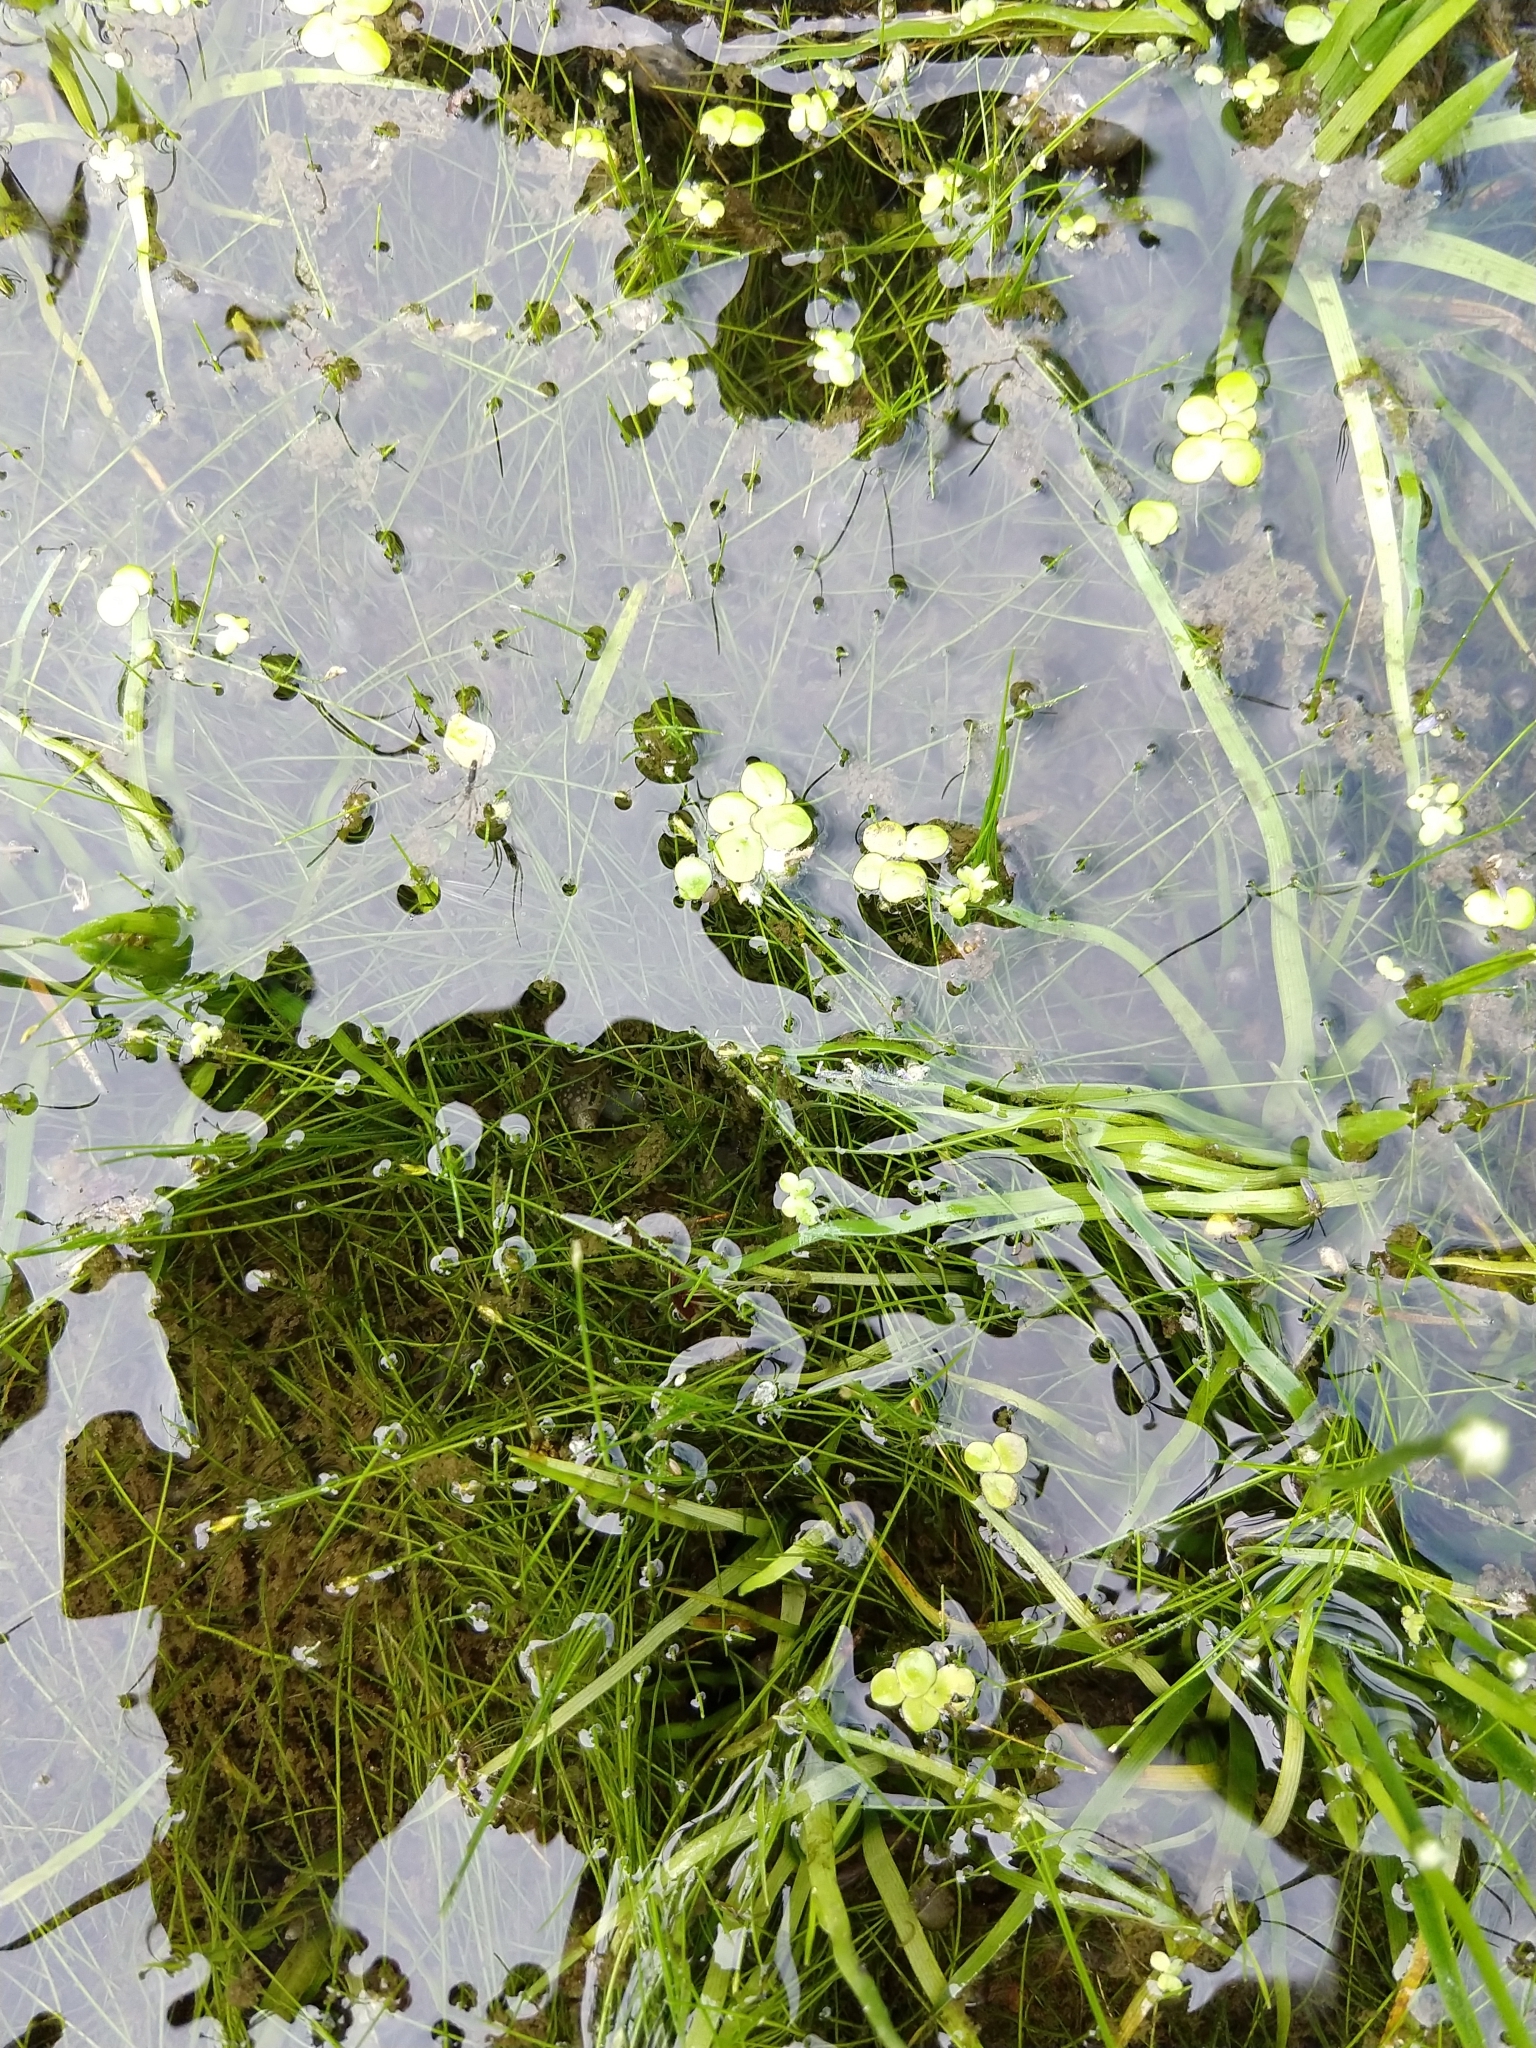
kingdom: Plantae
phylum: Tracheophyta
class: Liliopsida
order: Alismatales
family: Araceae
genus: Spirodela
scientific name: Spirodela polyrhiza
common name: Great duckweed
